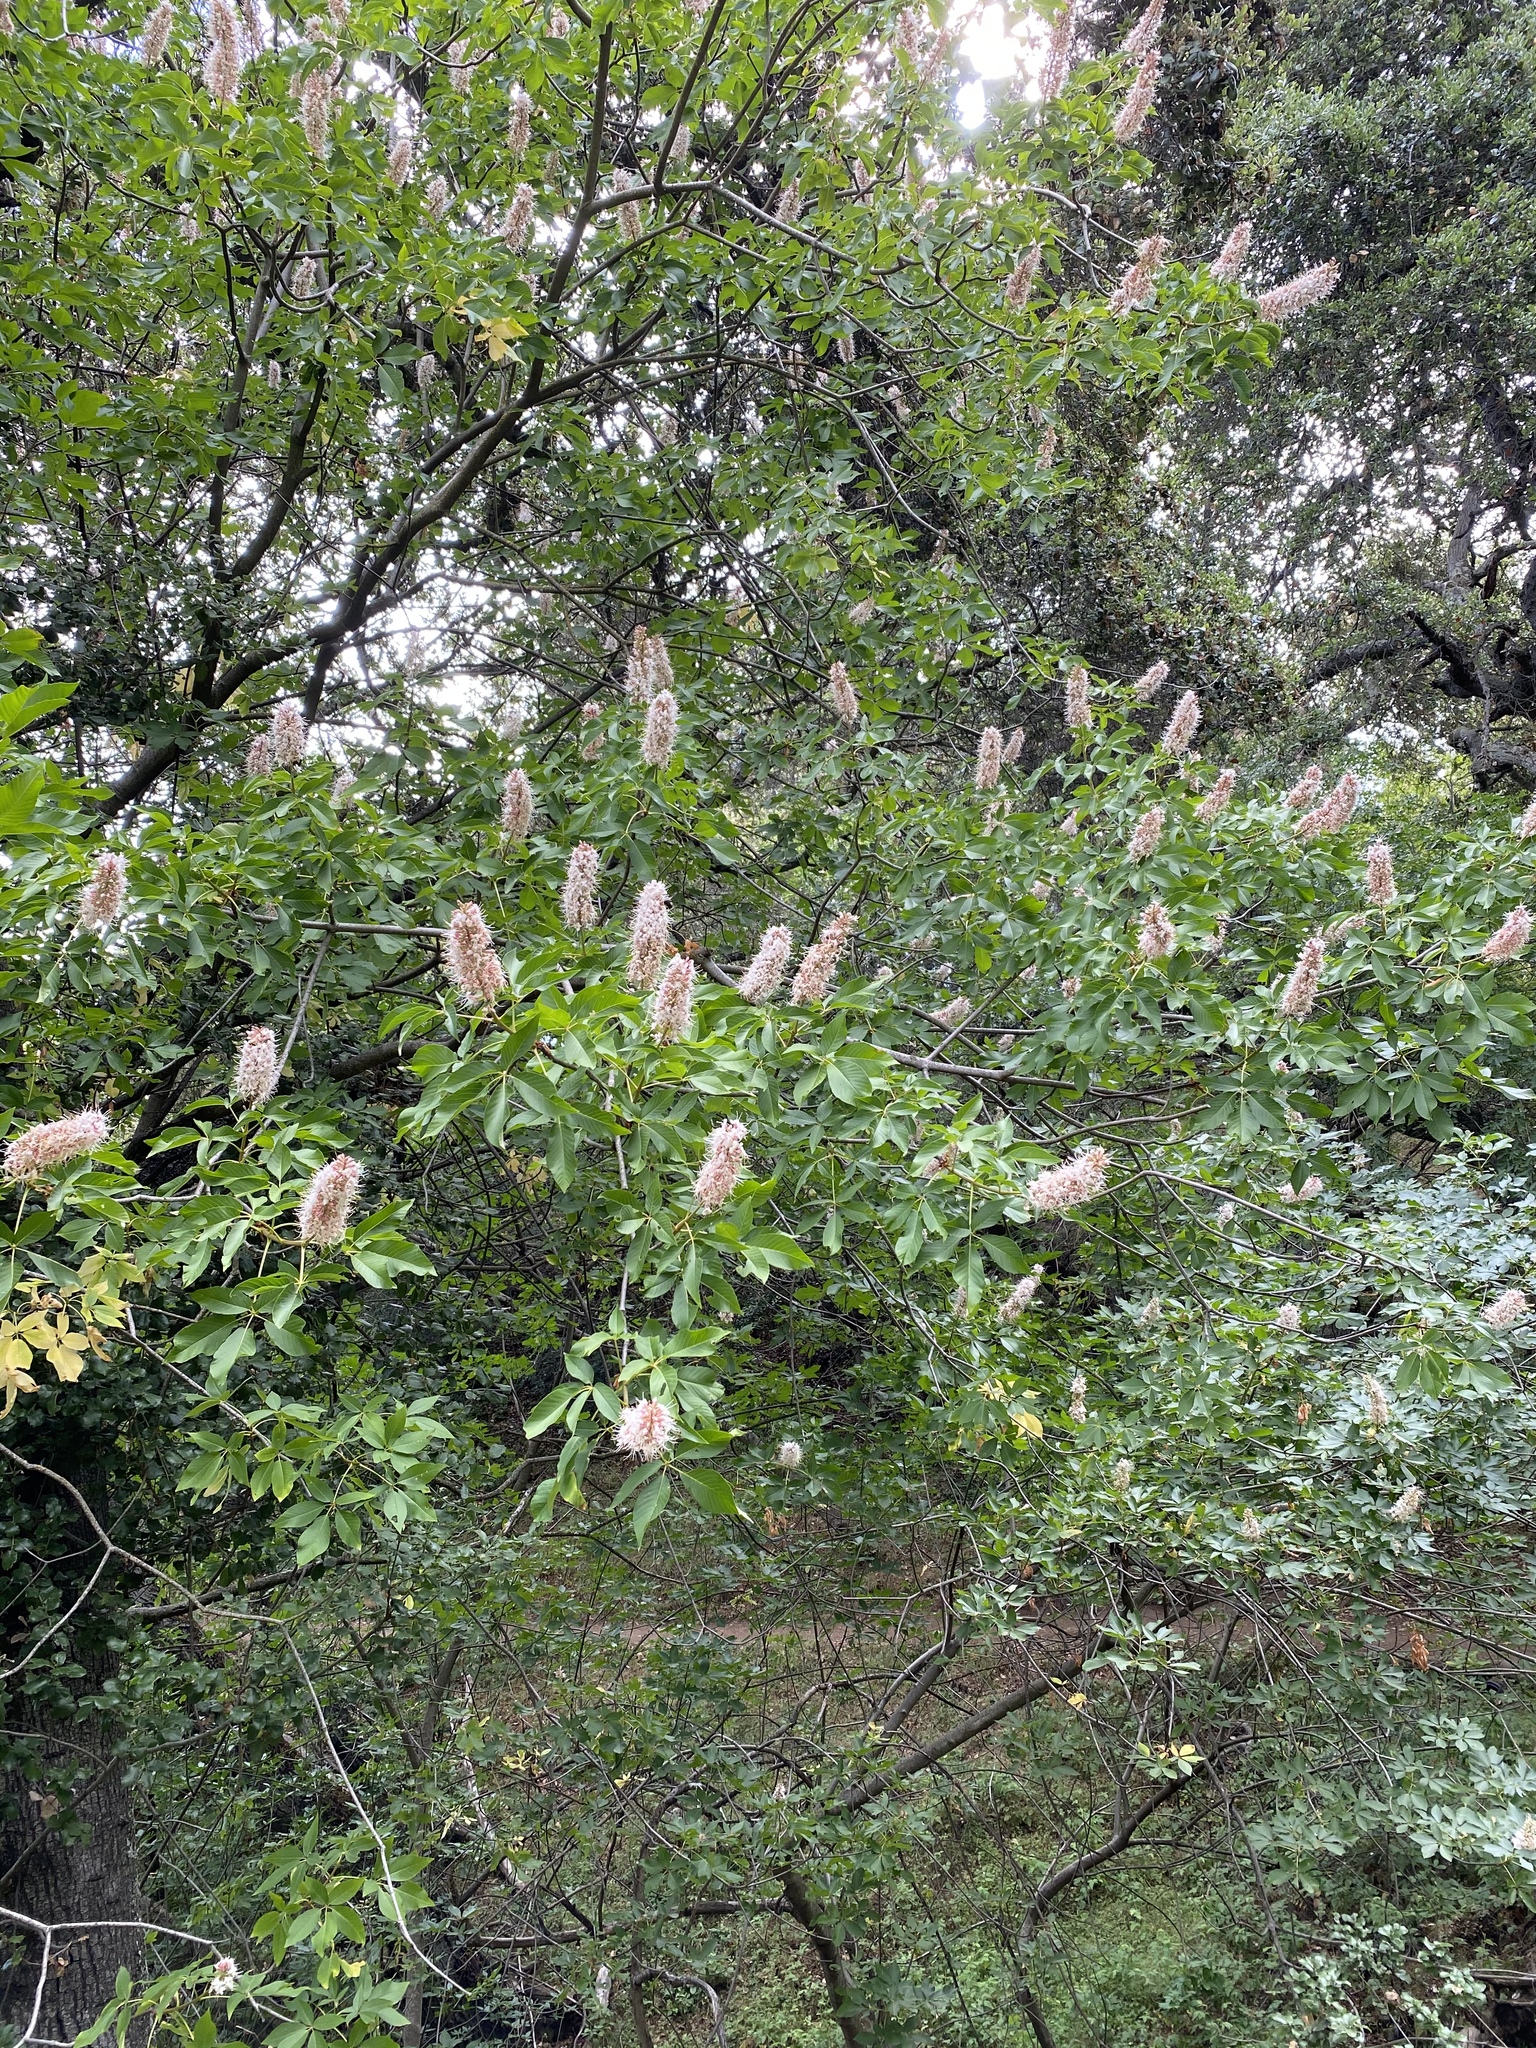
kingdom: Plantae
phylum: Tracheophyta
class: Magnoliopsida
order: Sapindales
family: Sapindaceae
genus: Aesculus
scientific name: Aesculus californica
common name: California buckeye
